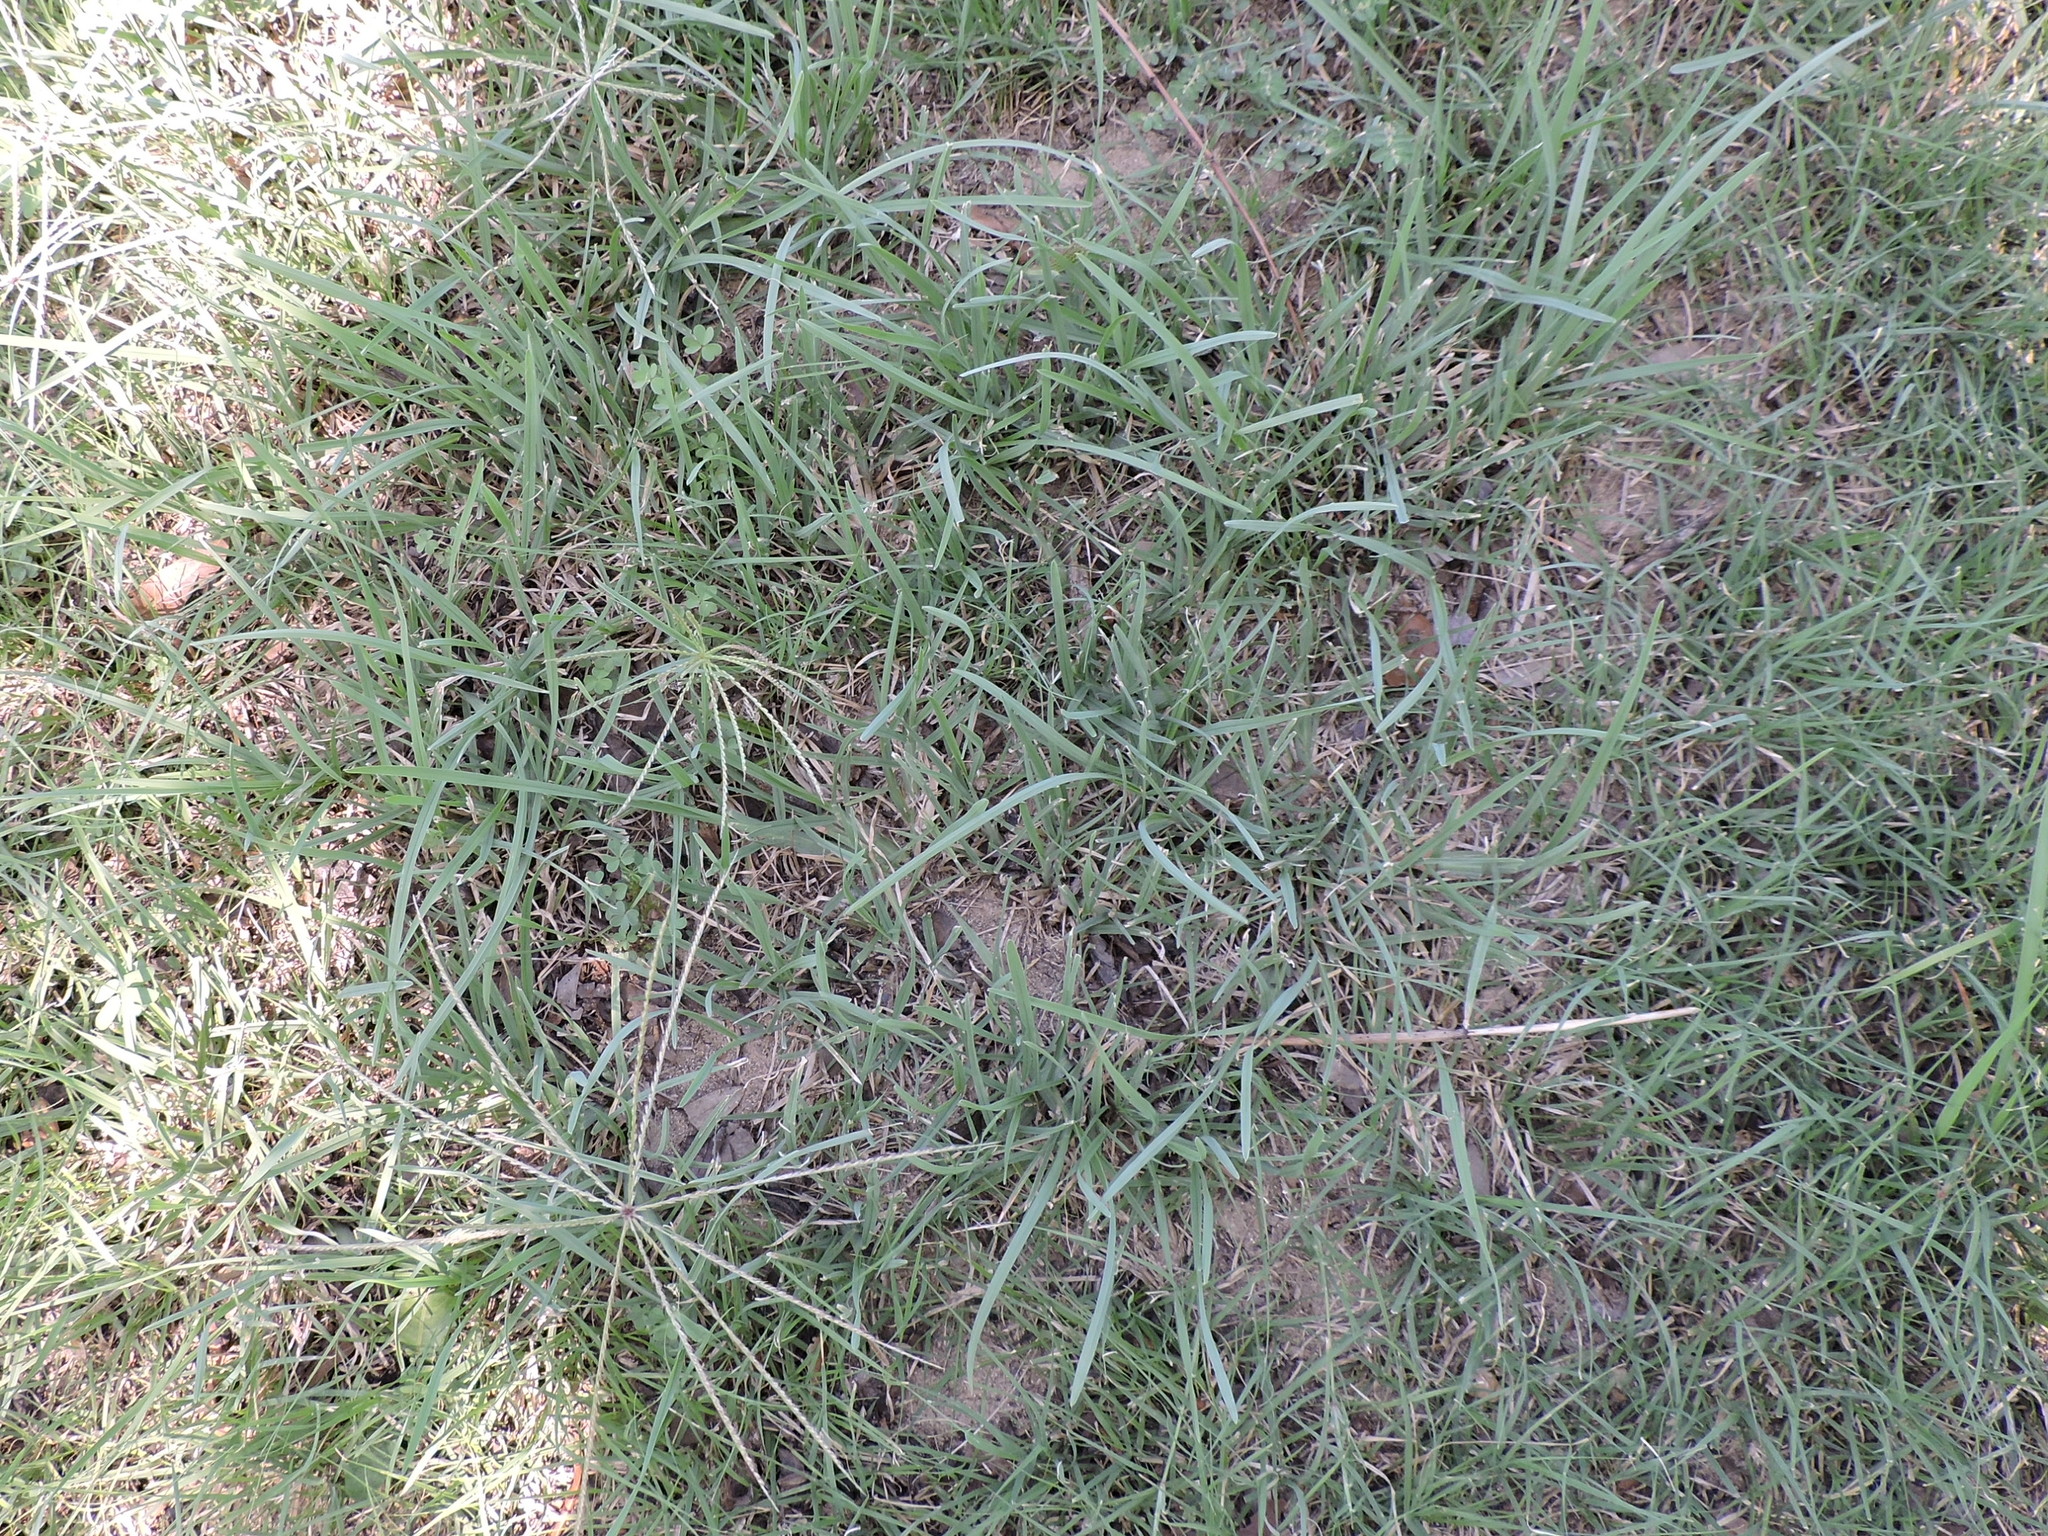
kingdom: Plantae
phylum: Tracheophyta
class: Liliopsida
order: Poales
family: Poaceae
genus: Chloris
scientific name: Chloris verticillata
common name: Tumble windmill grass
